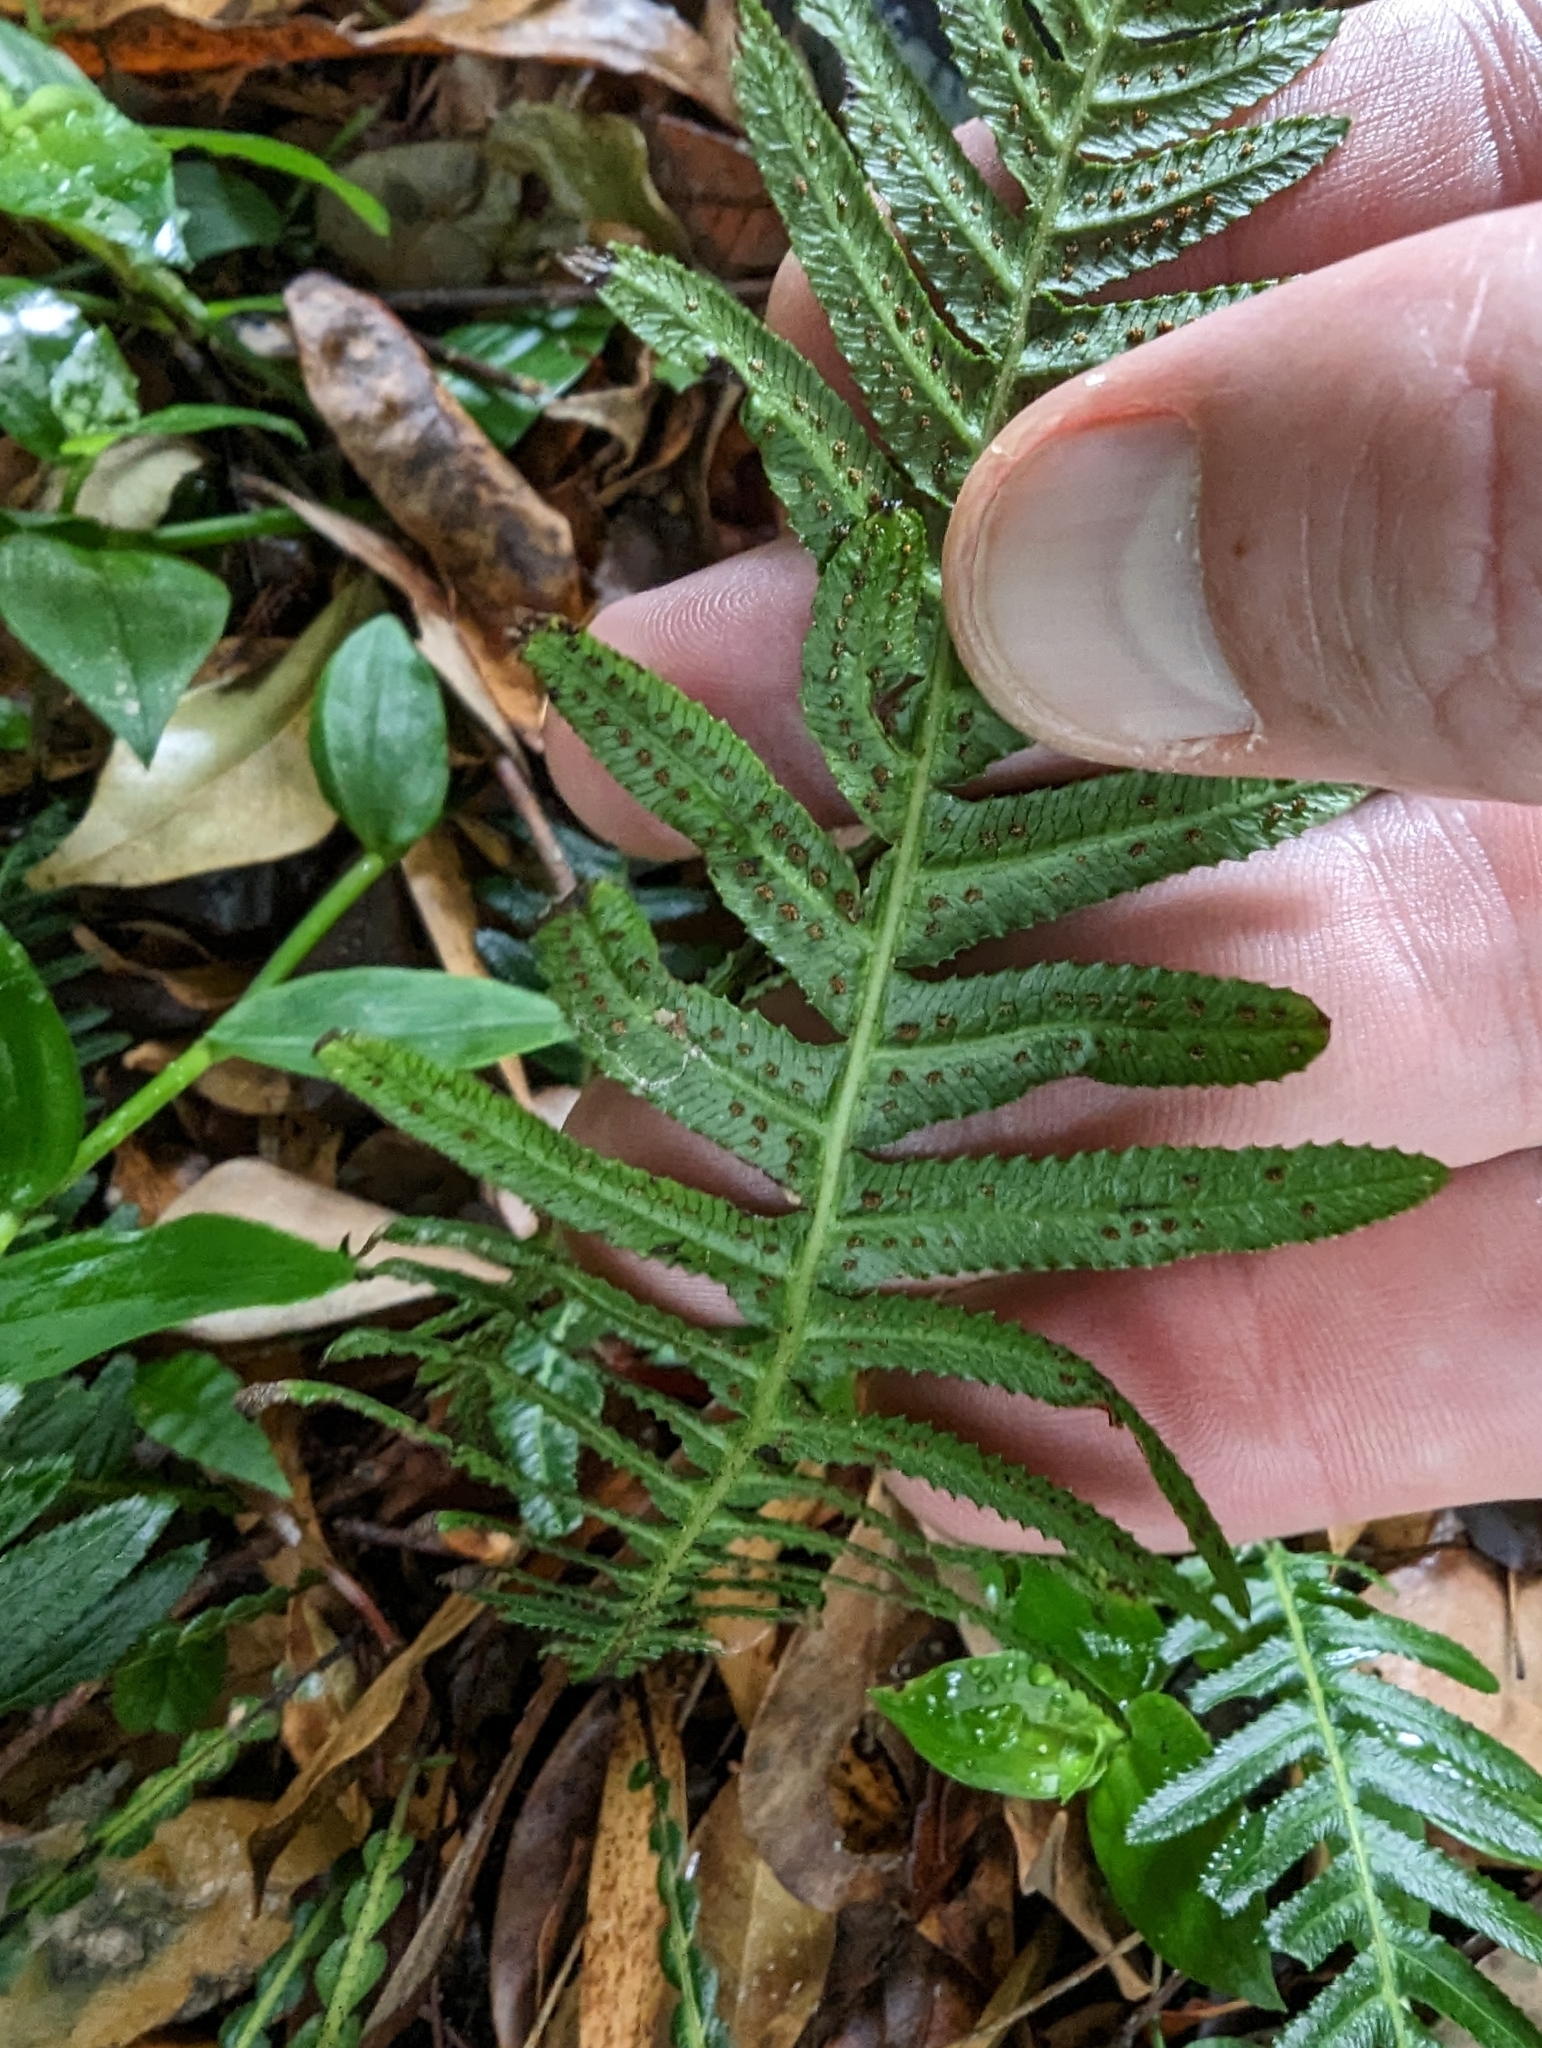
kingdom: Plantae
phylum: Tracheophyta
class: Polypodiopsida
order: Polypodiales
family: Blechnaceae
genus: Doodia
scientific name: Doodia aspera
